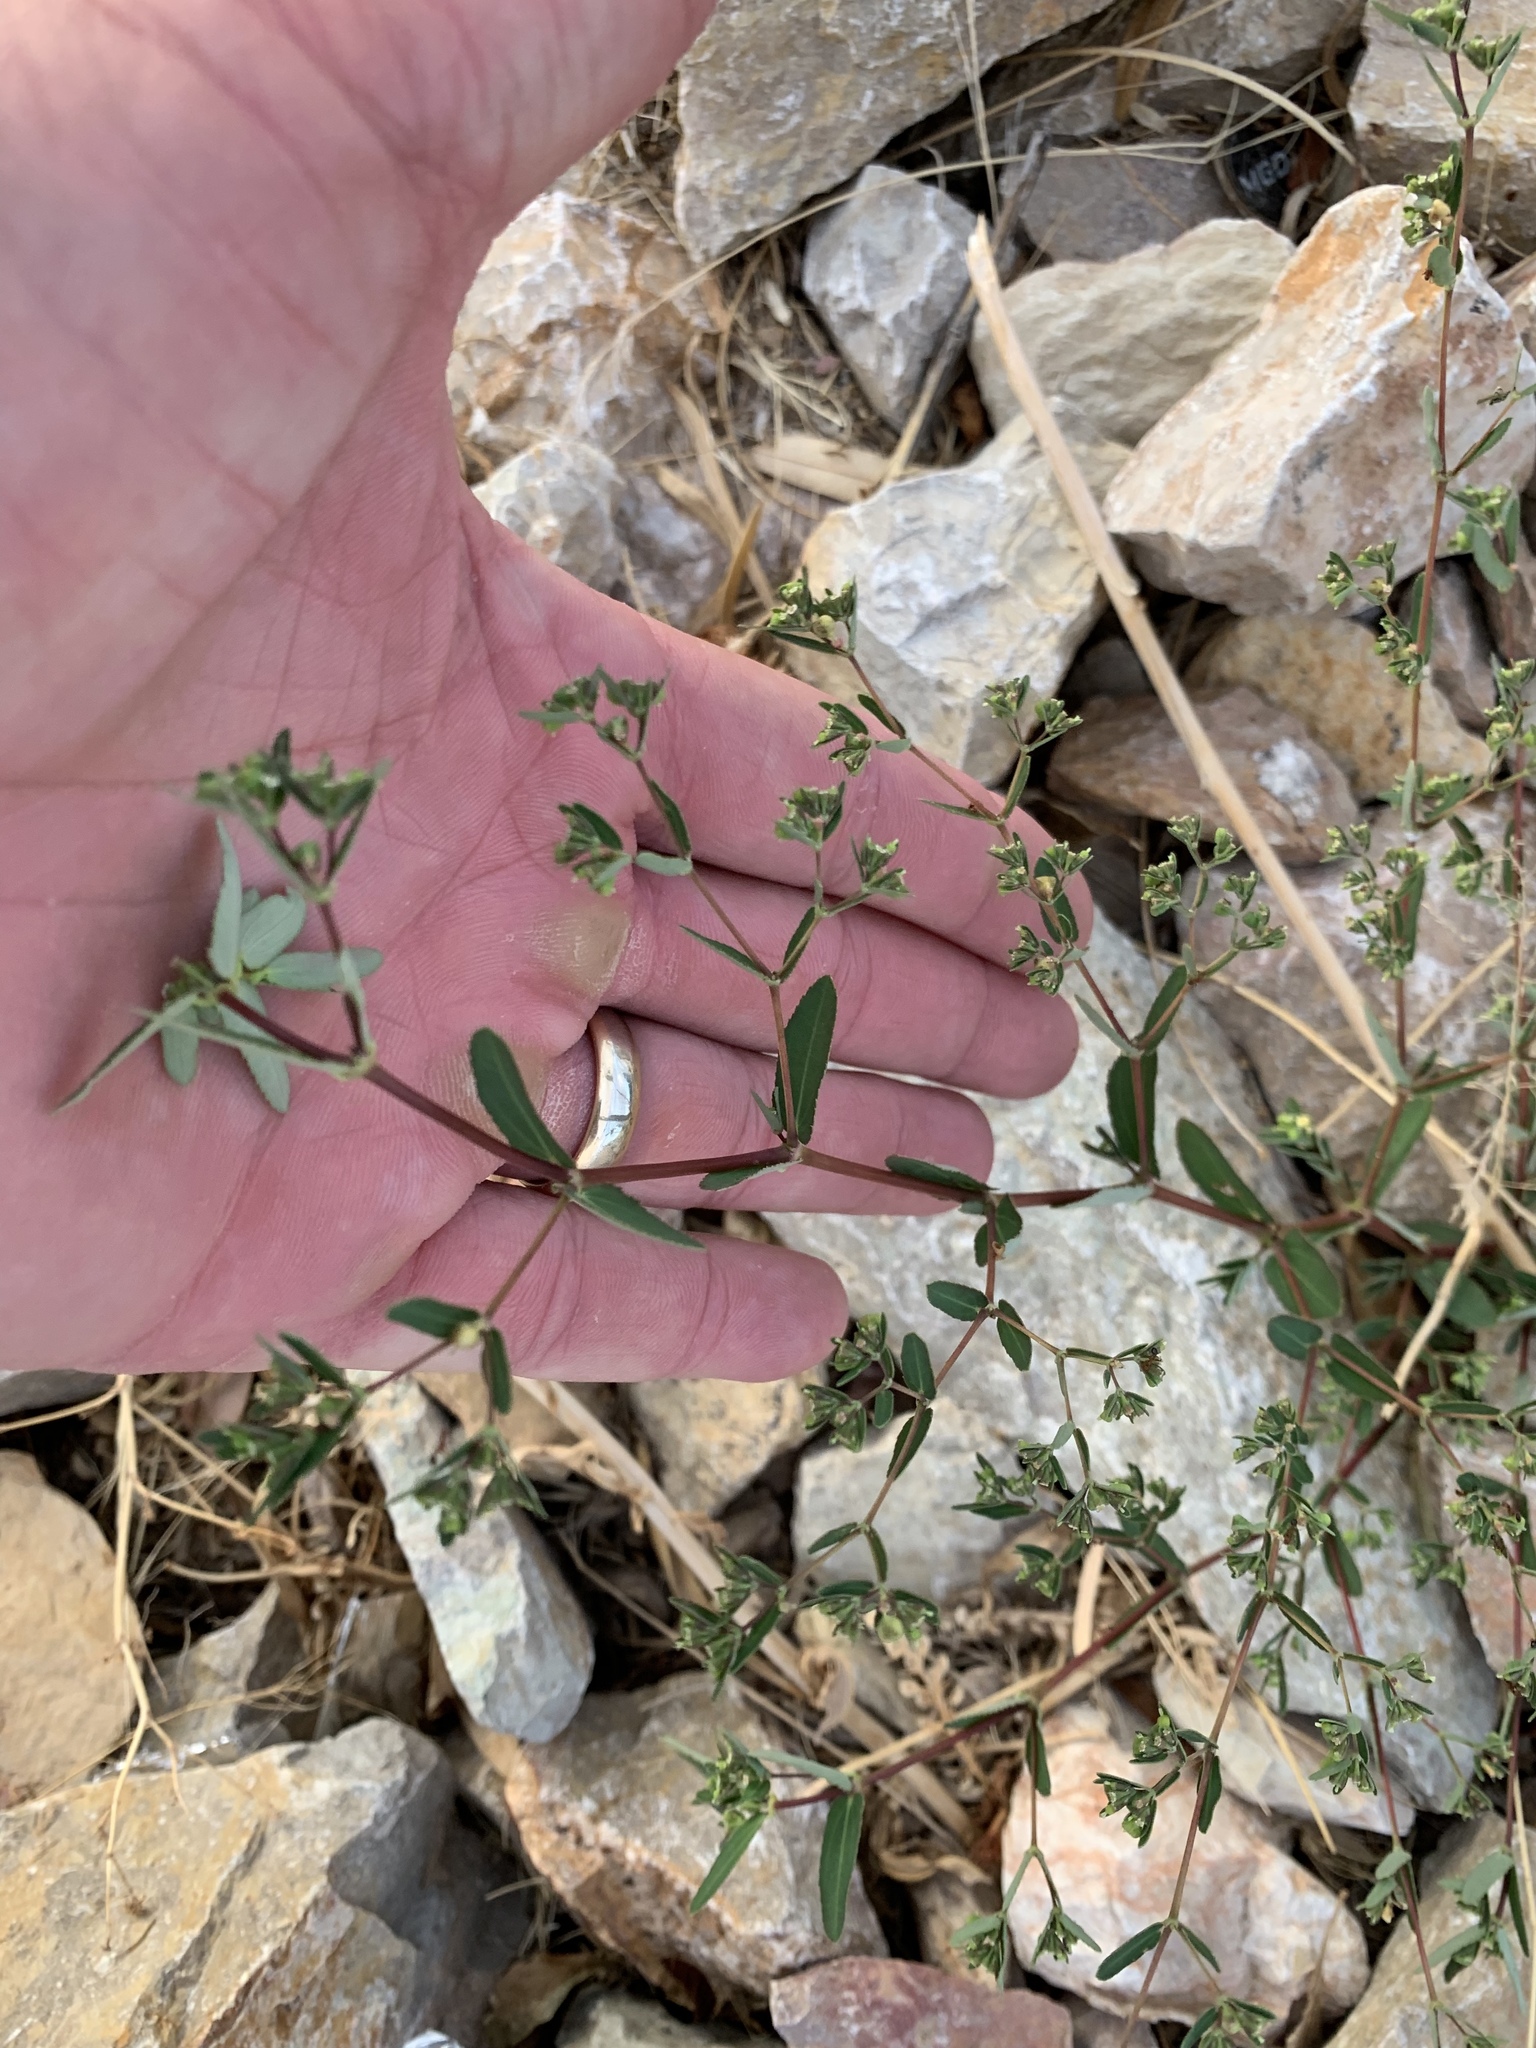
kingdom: Plantae
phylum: Tracheophyta
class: Magnoliopsida
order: Malpighiales
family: Euphorbiaceae
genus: Euphorbia
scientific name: Euphorbia hyssopifolia
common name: Hyssopleaf sandmat
